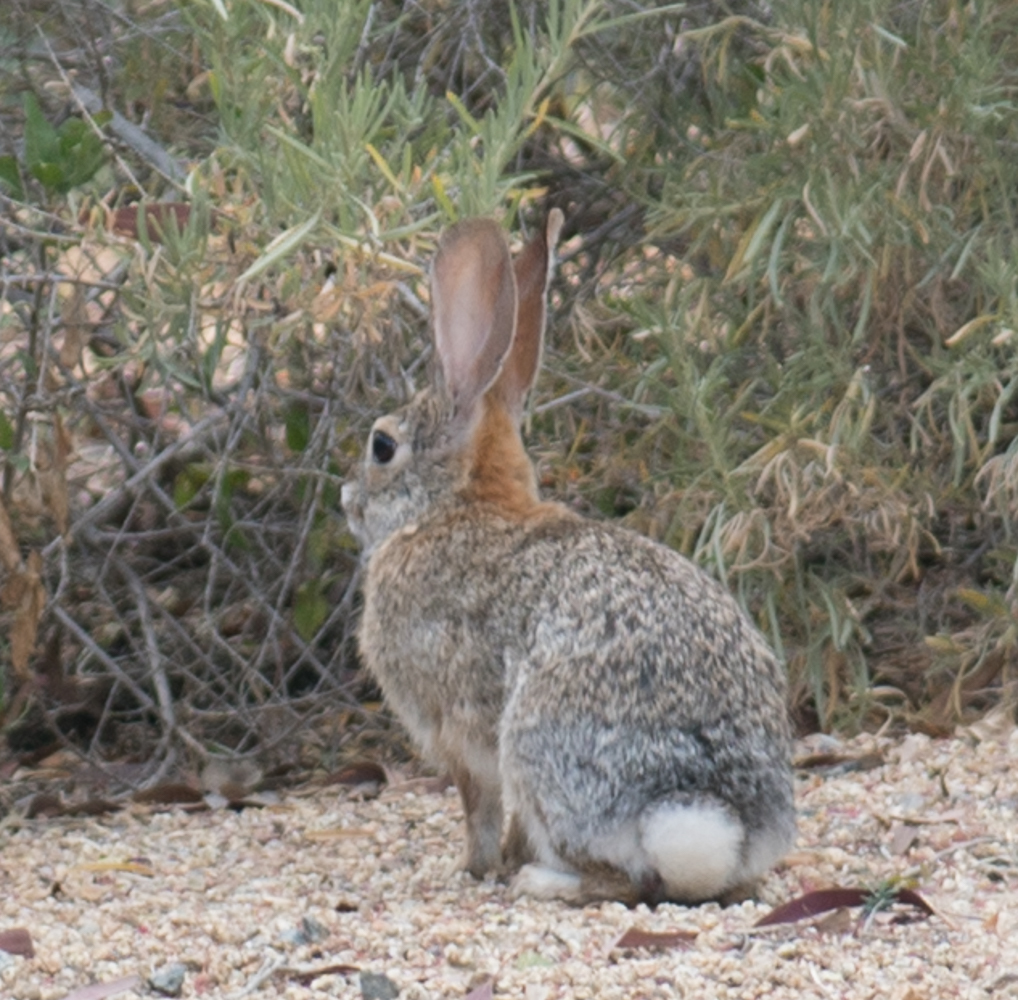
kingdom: Animalia
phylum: Chordata
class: Mammalia
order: Lagomorpha
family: Leporidae
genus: Sylvilagus
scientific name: Sylvilagus audubonii
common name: Desert cottontail
